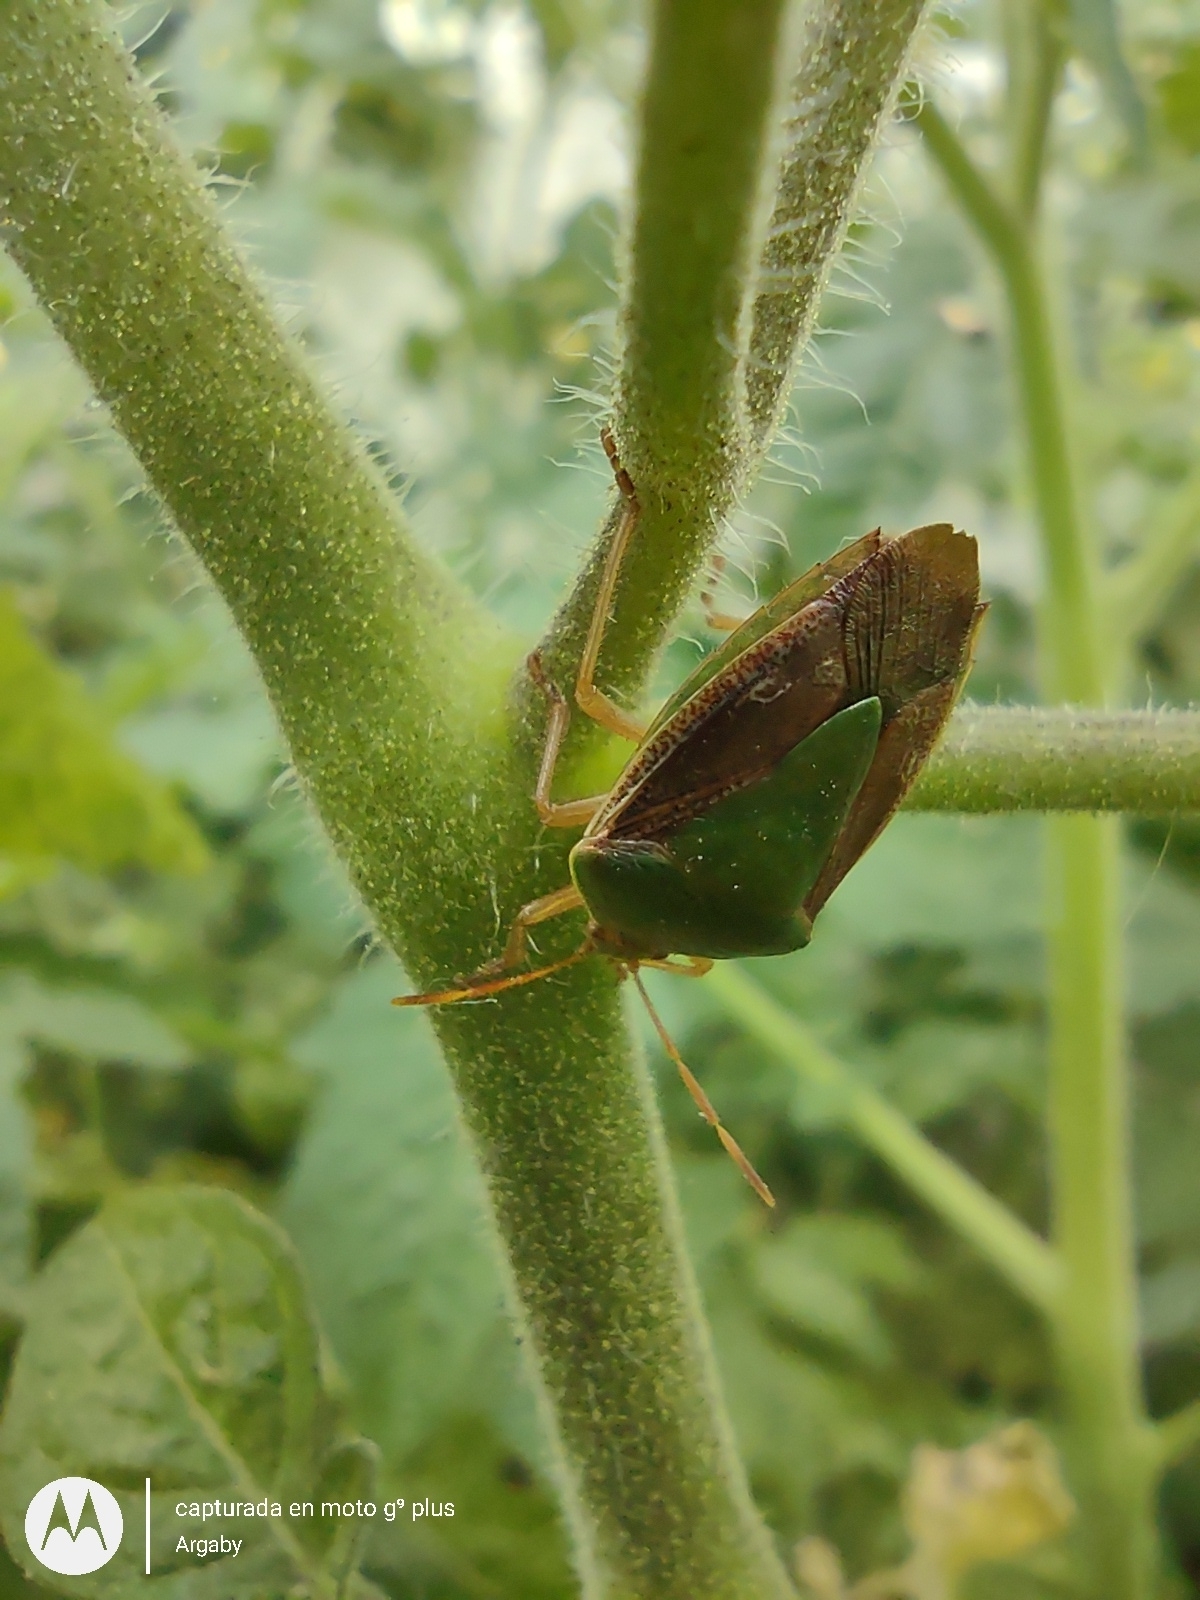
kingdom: Animalia
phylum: Arthropoda
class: Insecta
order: Hemiptera
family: Pentatomidae
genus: Edessa
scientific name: Edessa meditabunda
